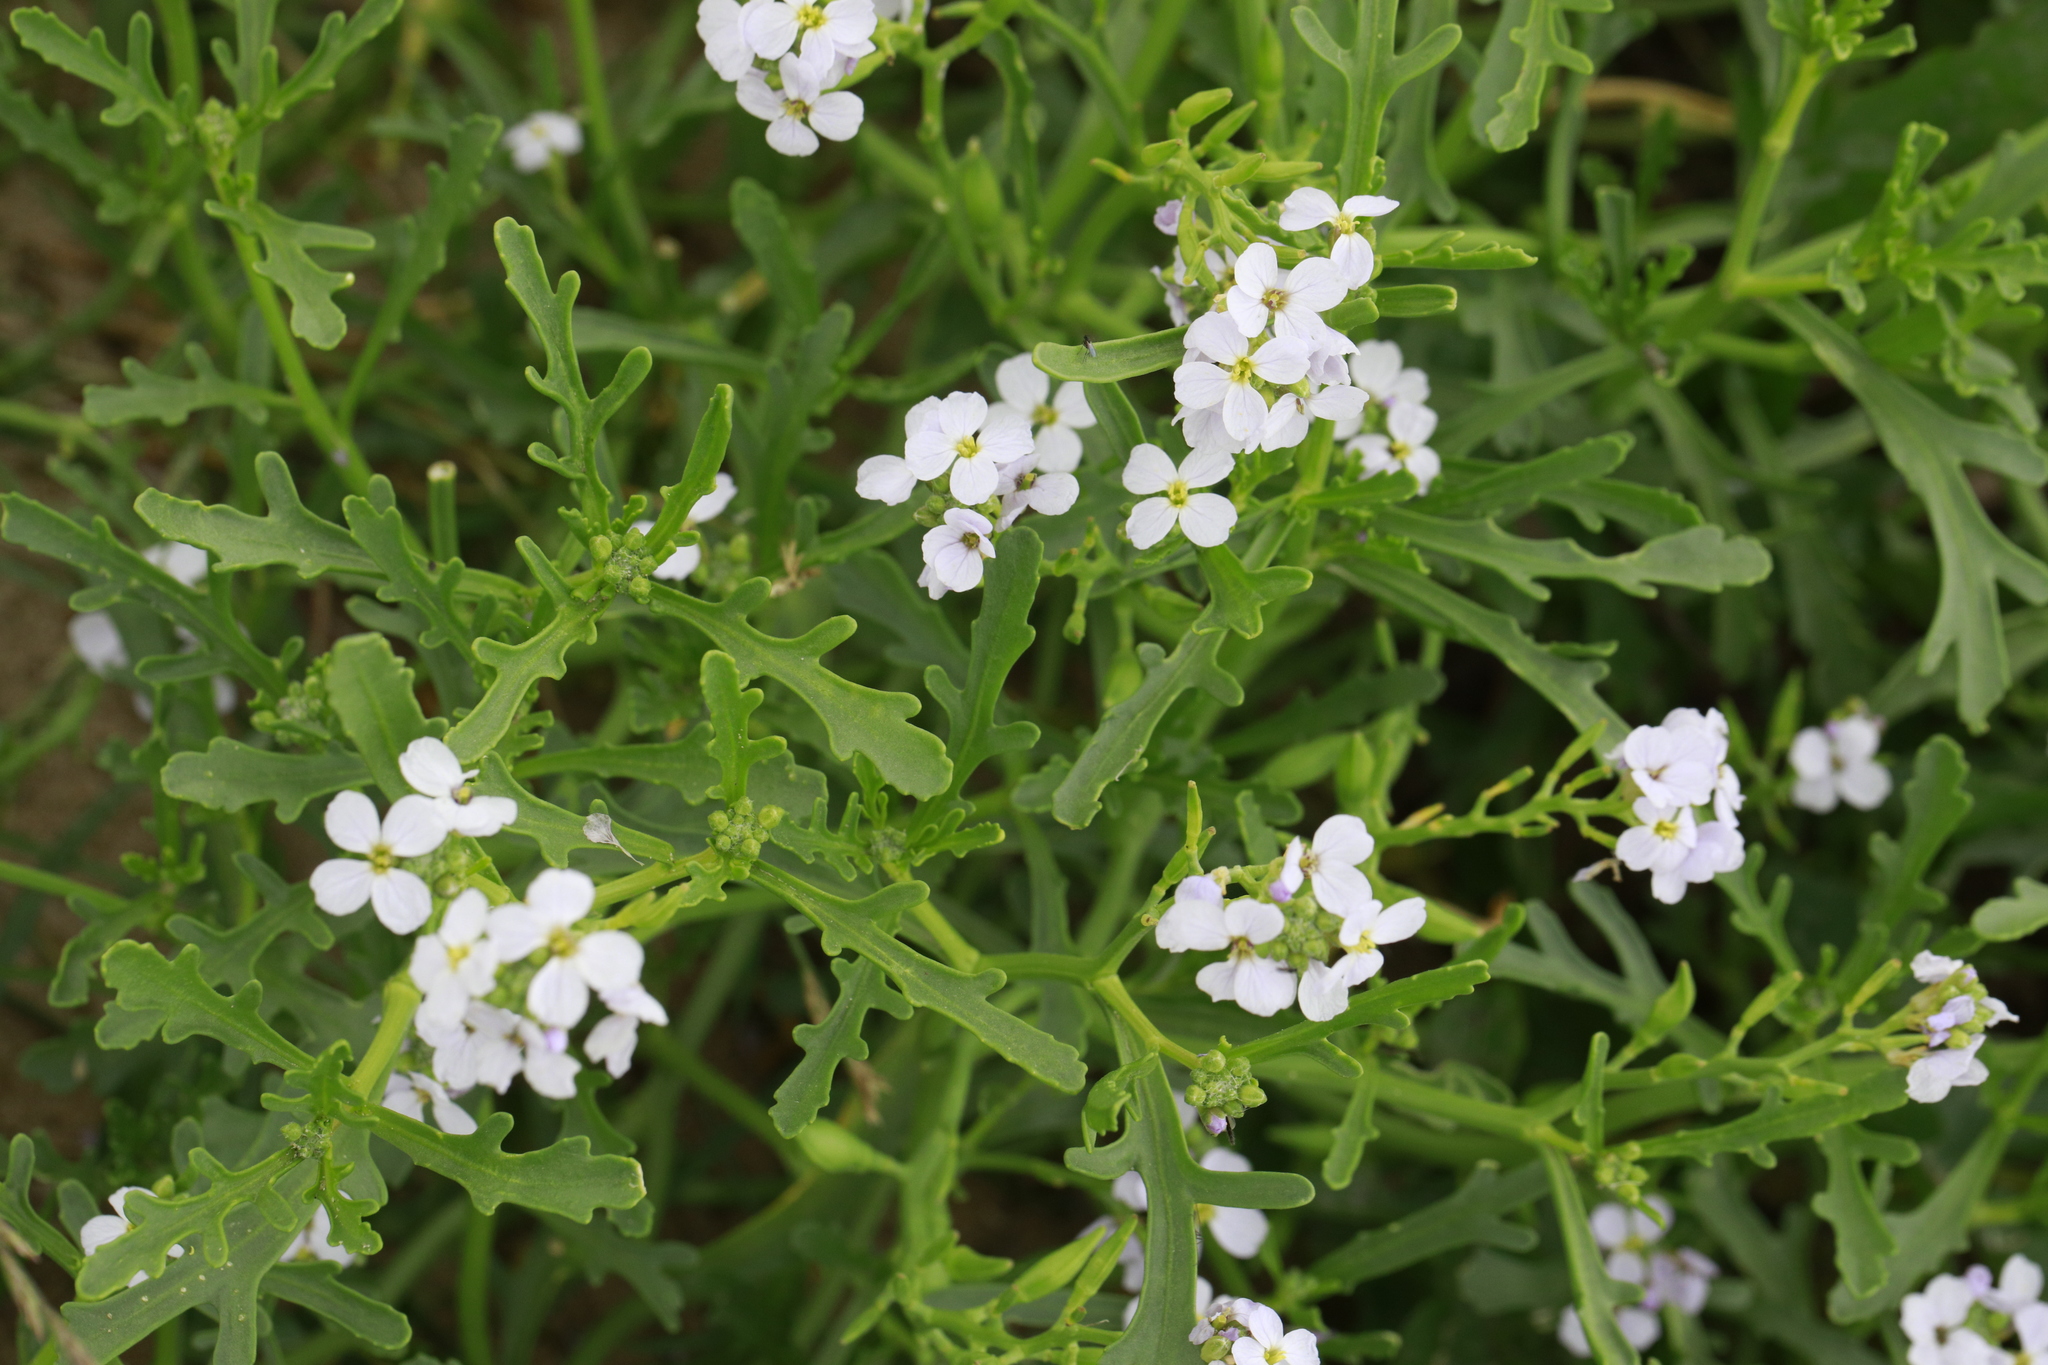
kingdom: Plantae
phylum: Tracheophyta
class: Magnoliopsida
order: Brassicales
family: Brassicaceae
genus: Cakile
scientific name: Cakile maritima
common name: Sea rocket
